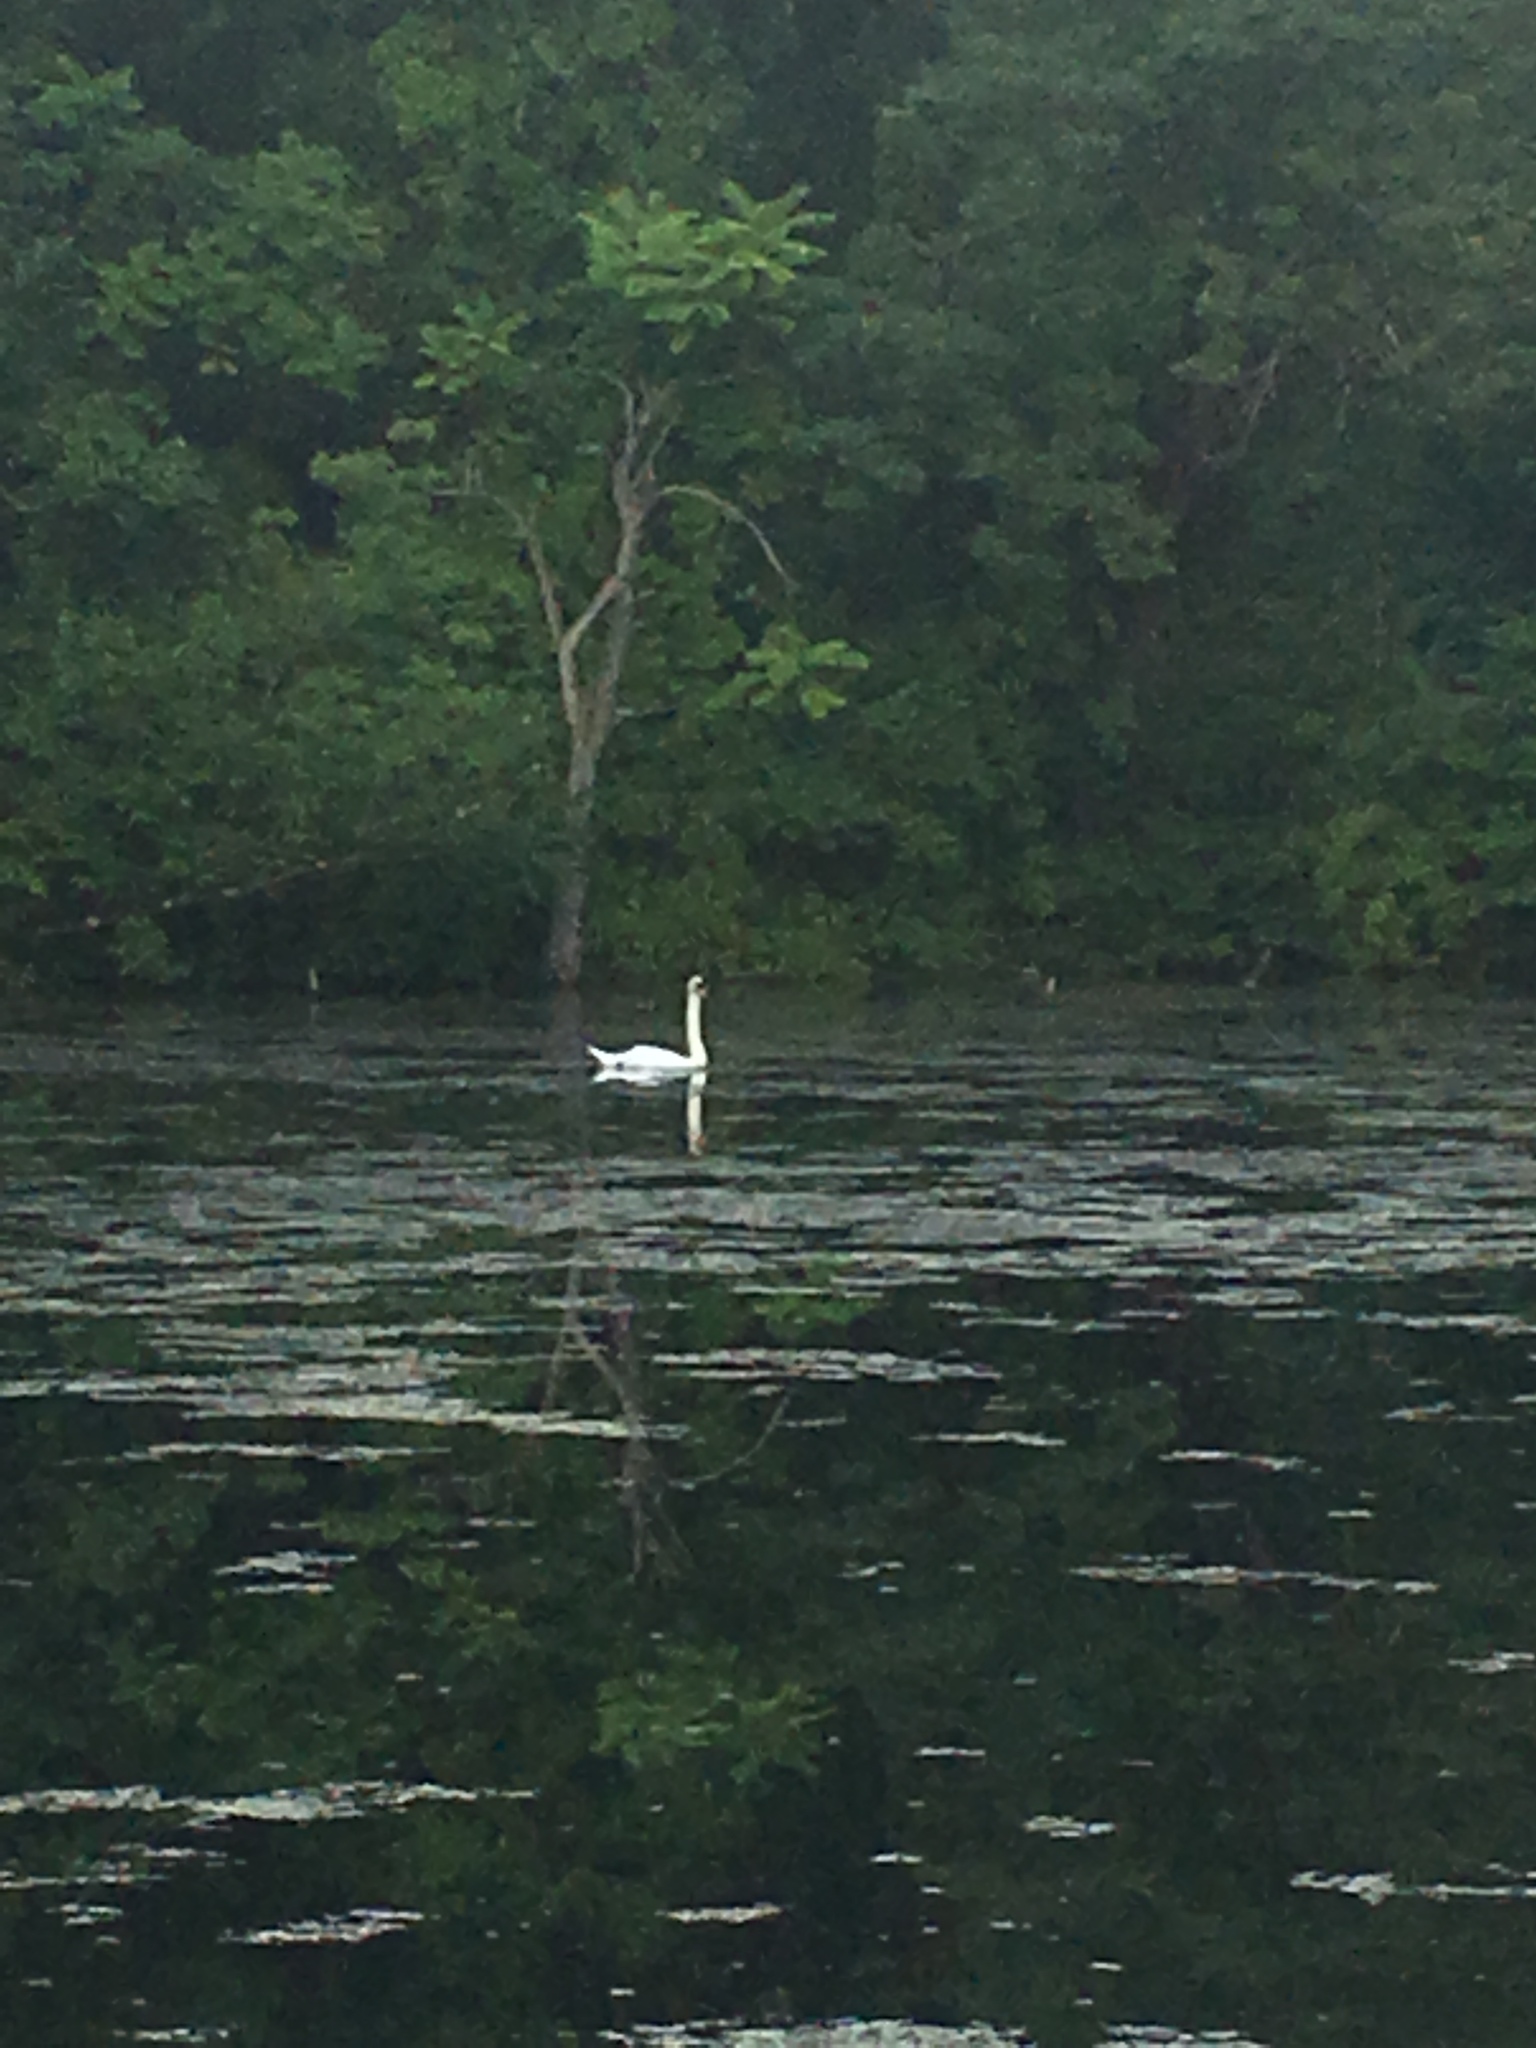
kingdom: Animalia
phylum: Chordata
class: Aves
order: Anseriformes
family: Anatidae
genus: Cygnus
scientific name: Cygnus olor
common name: Mute swan
